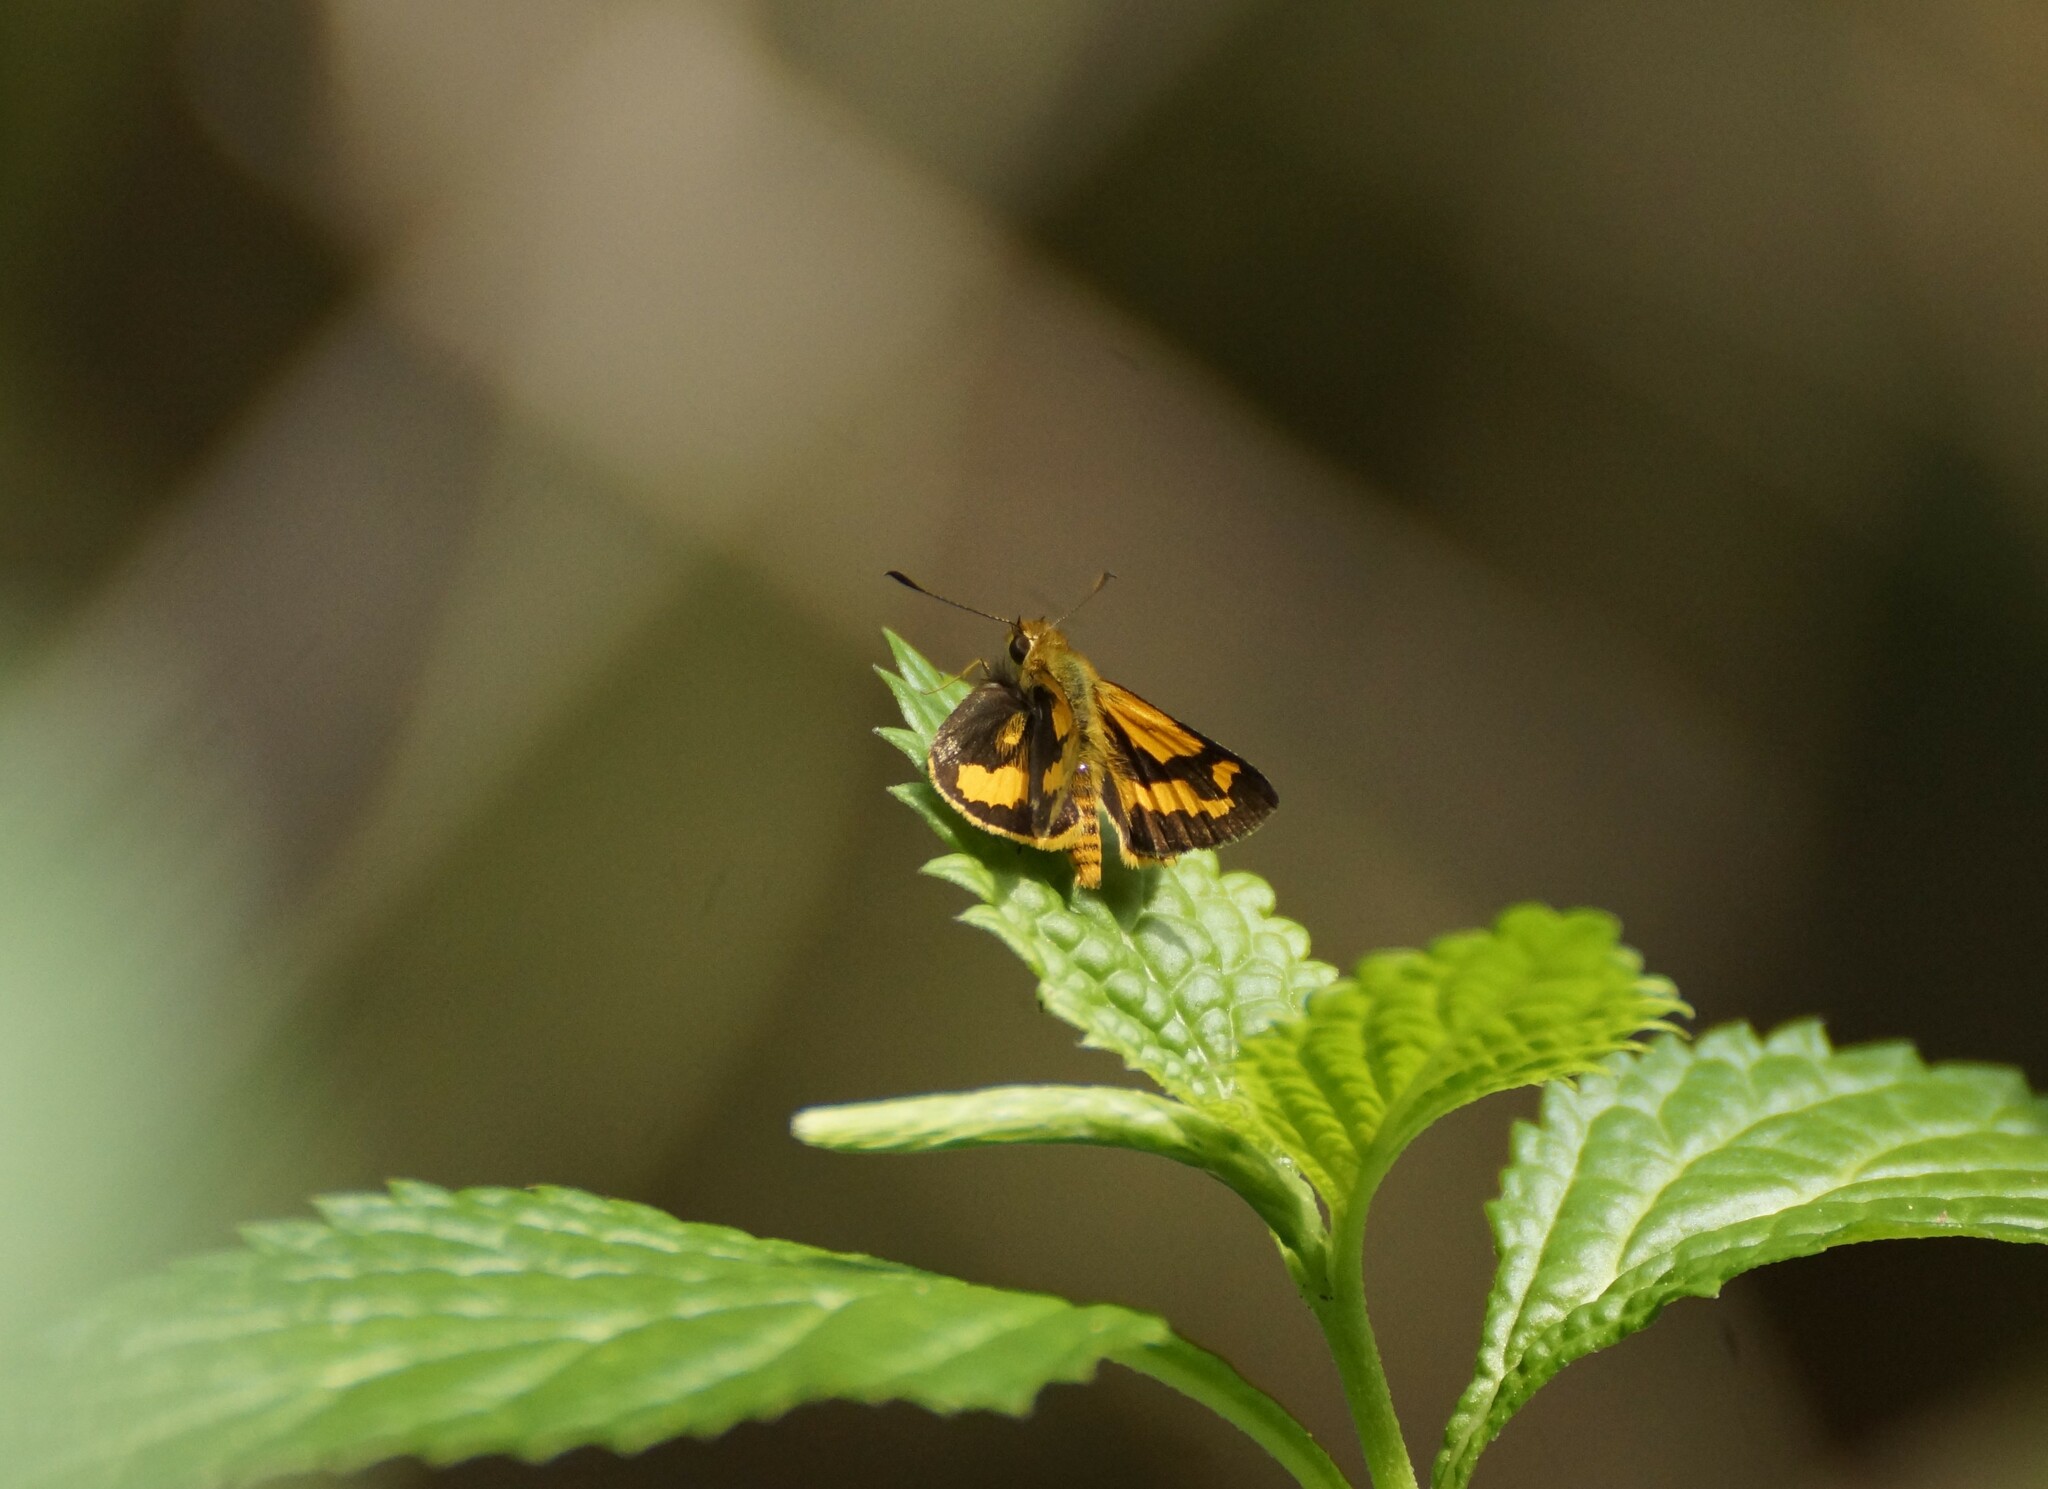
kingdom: Animalia
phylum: Arthropoda
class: Insecta
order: Lepidoptera
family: Hesperiidae
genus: Ocybadistes
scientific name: Ocybadistes ardea
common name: Dark orange dart
